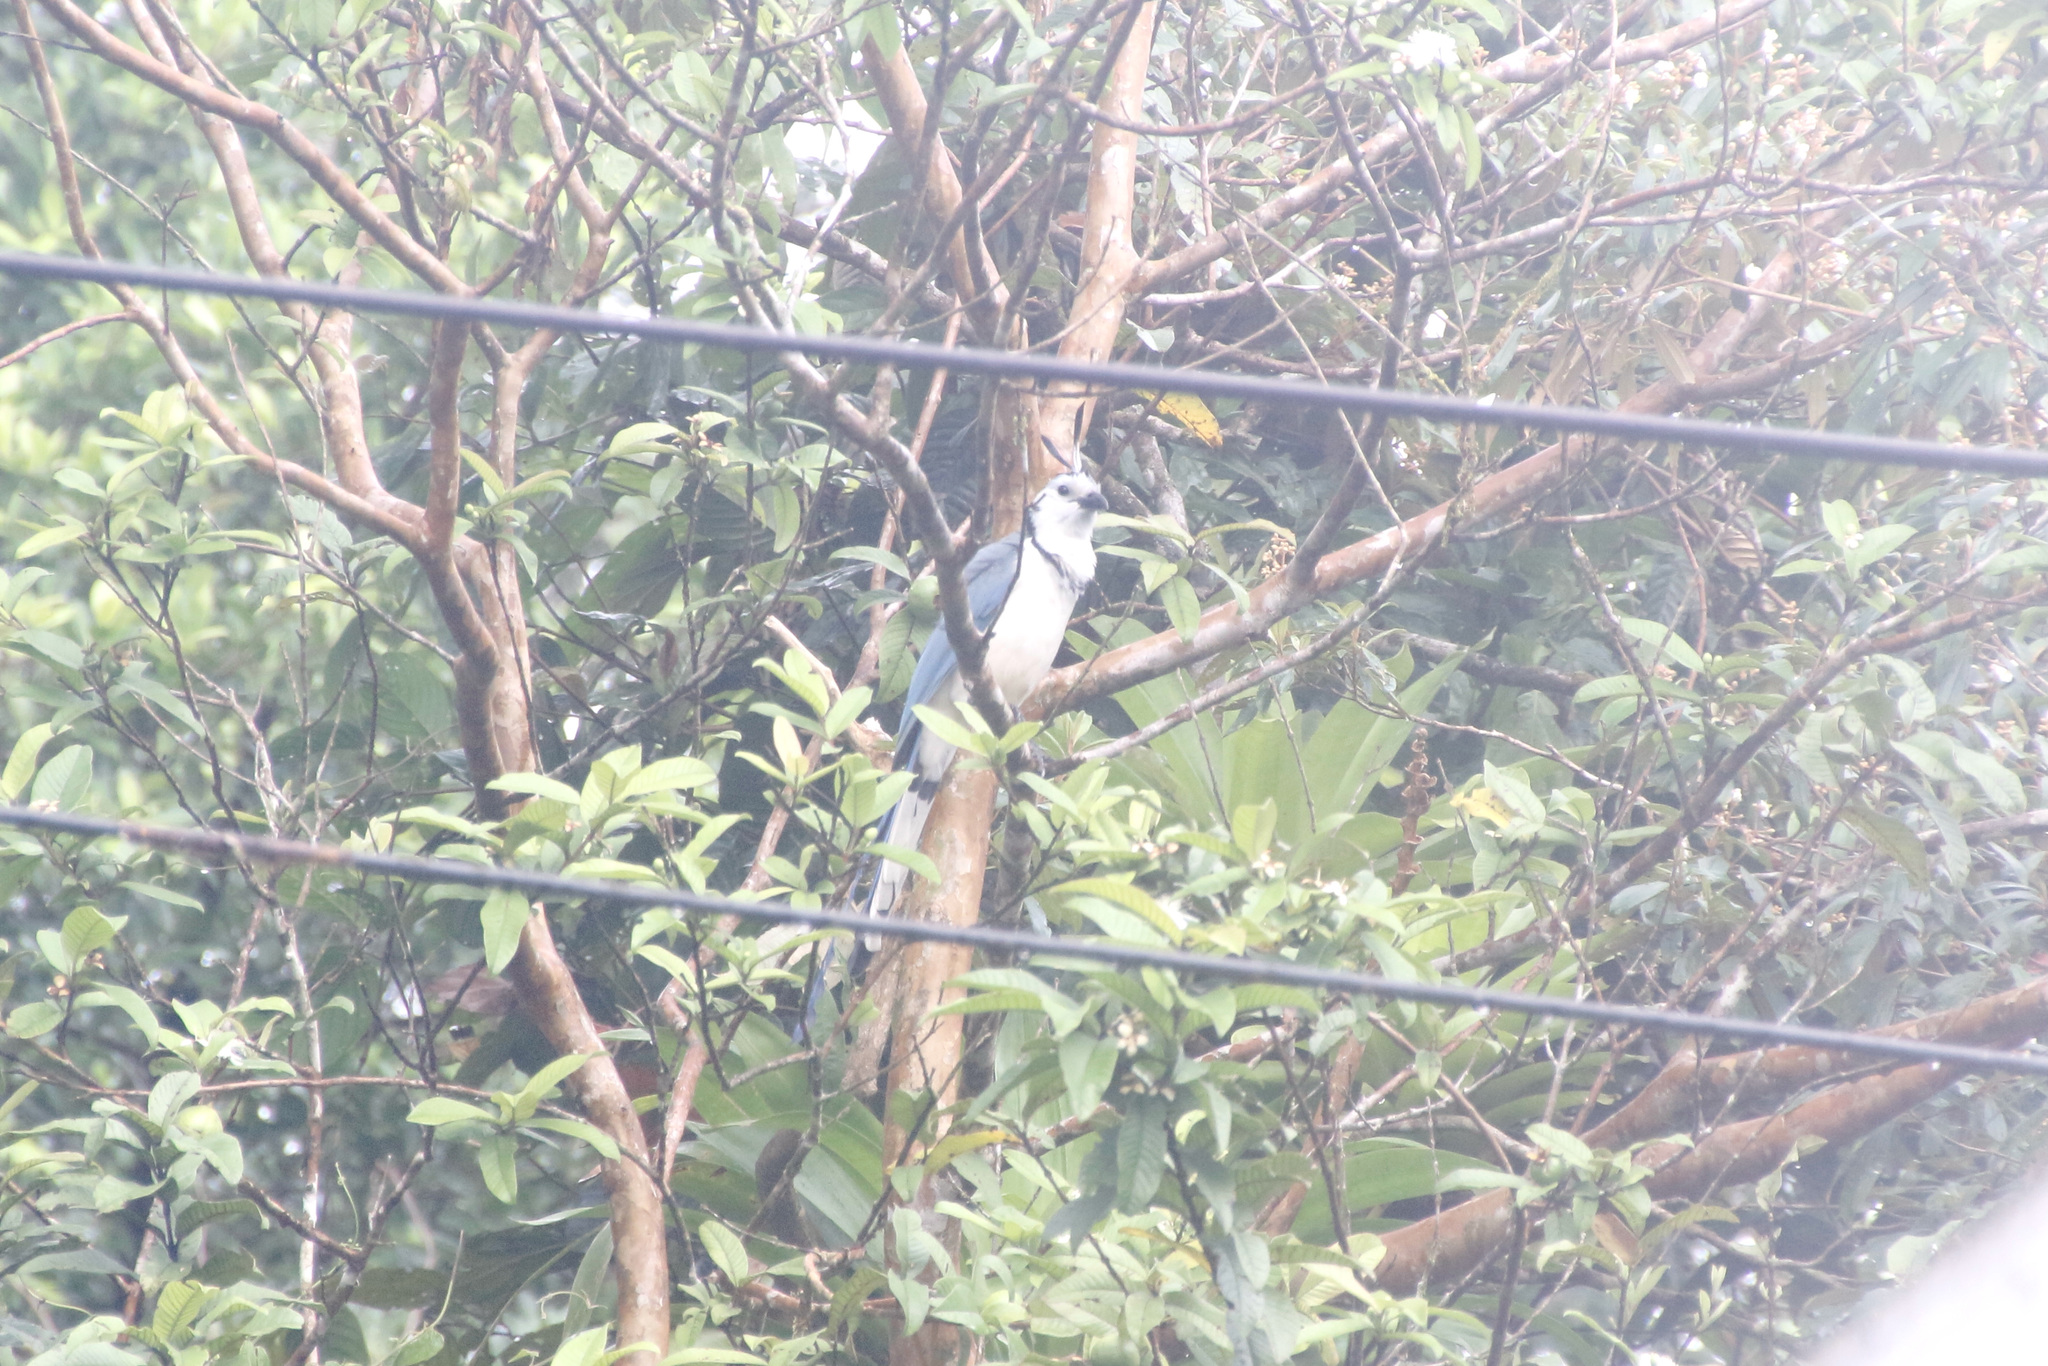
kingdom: Animalia
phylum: Chordata
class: Aves
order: Passeriformes
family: Corvidae
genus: Calocitta
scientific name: Calocitta formosa
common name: White-throated magpie-jay
